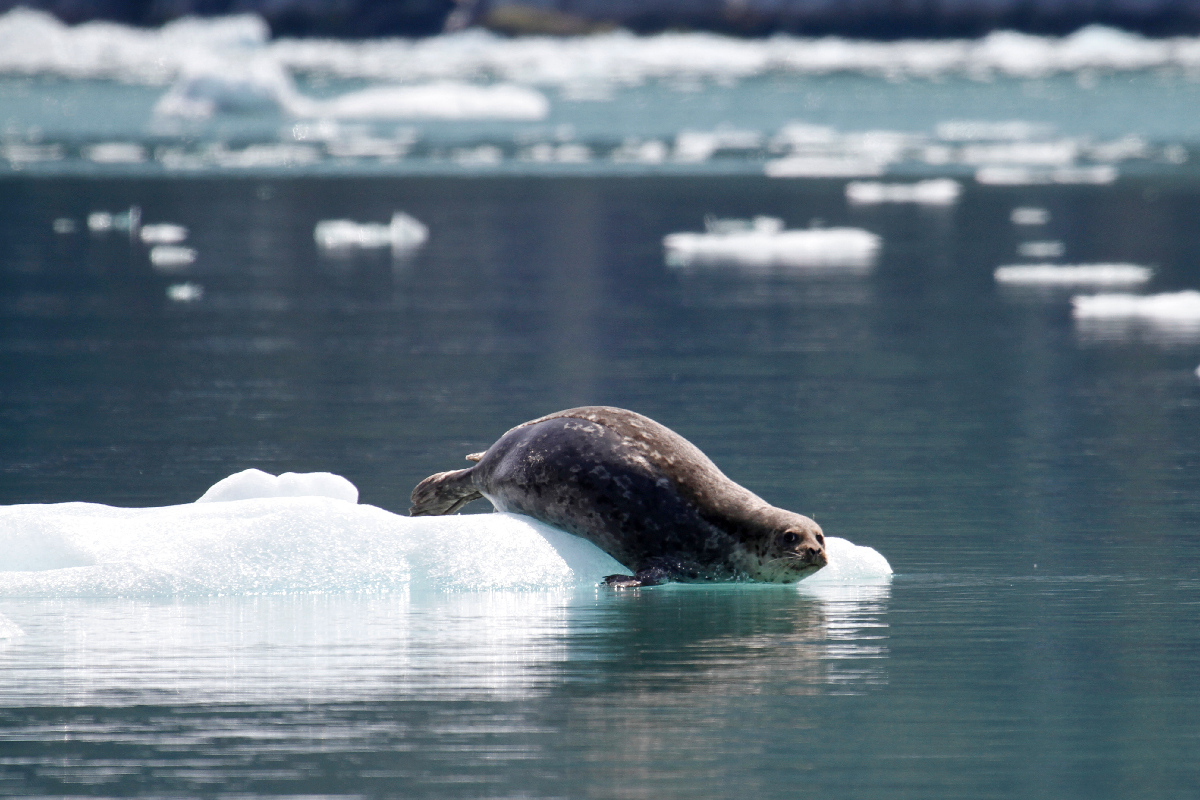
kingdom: Animalia
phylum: Chordata
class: Mammalia
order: Carnivora
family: Phocidae
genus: Phoca
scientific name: Phoca vitulina
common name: Harbor seal
